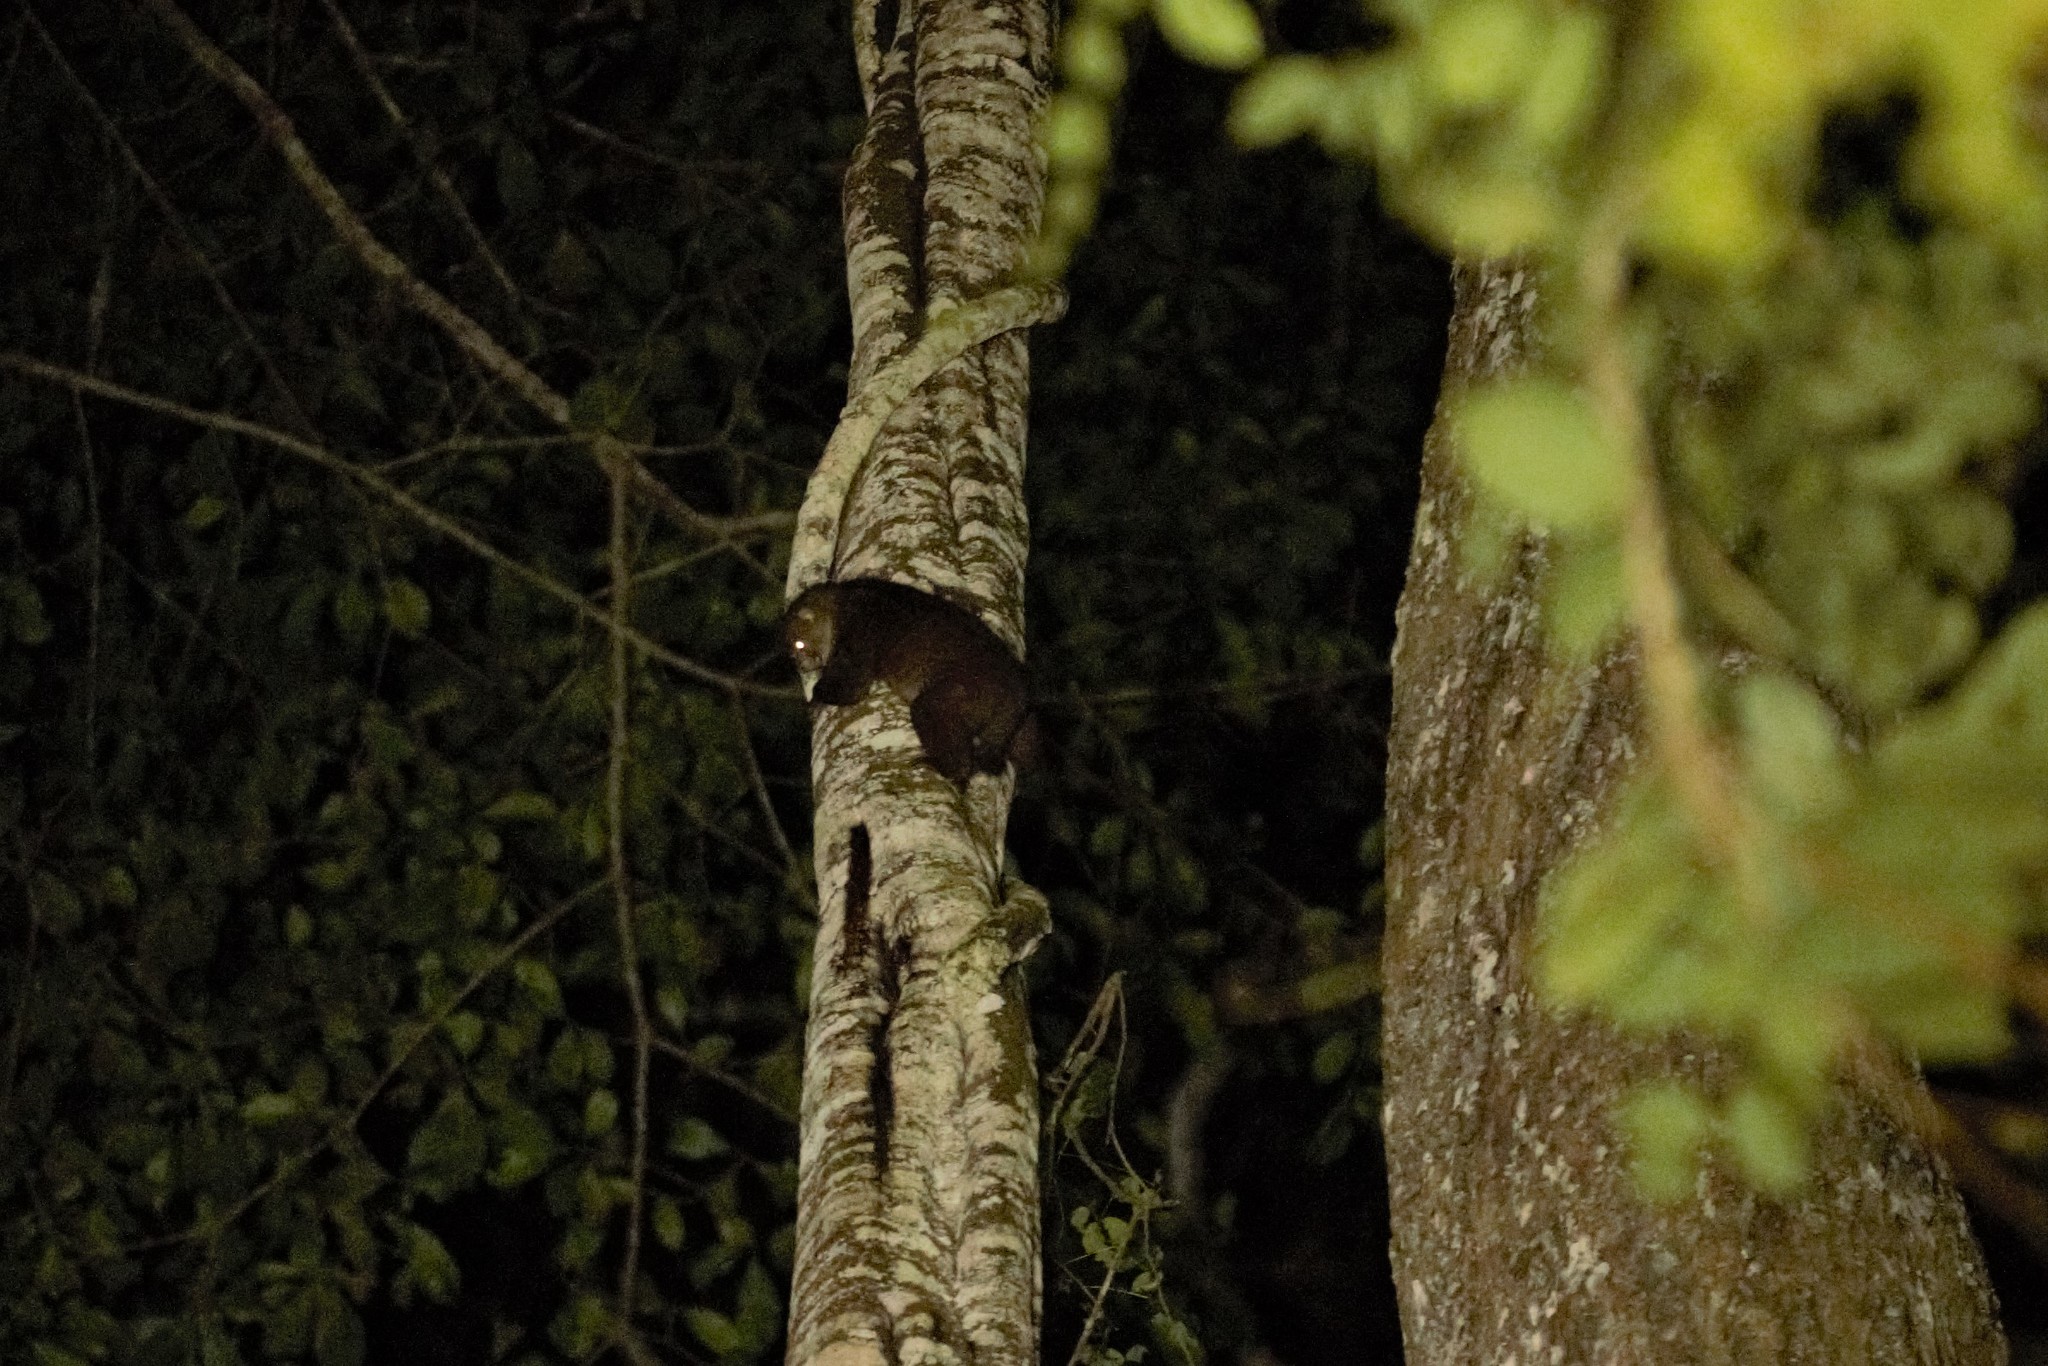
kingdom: Animalia
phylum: Chordata
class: Mammalia
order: Primates
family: Lorisidae
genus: Perodicticus
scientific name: Perodicticus edwardsi
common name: Central potto
